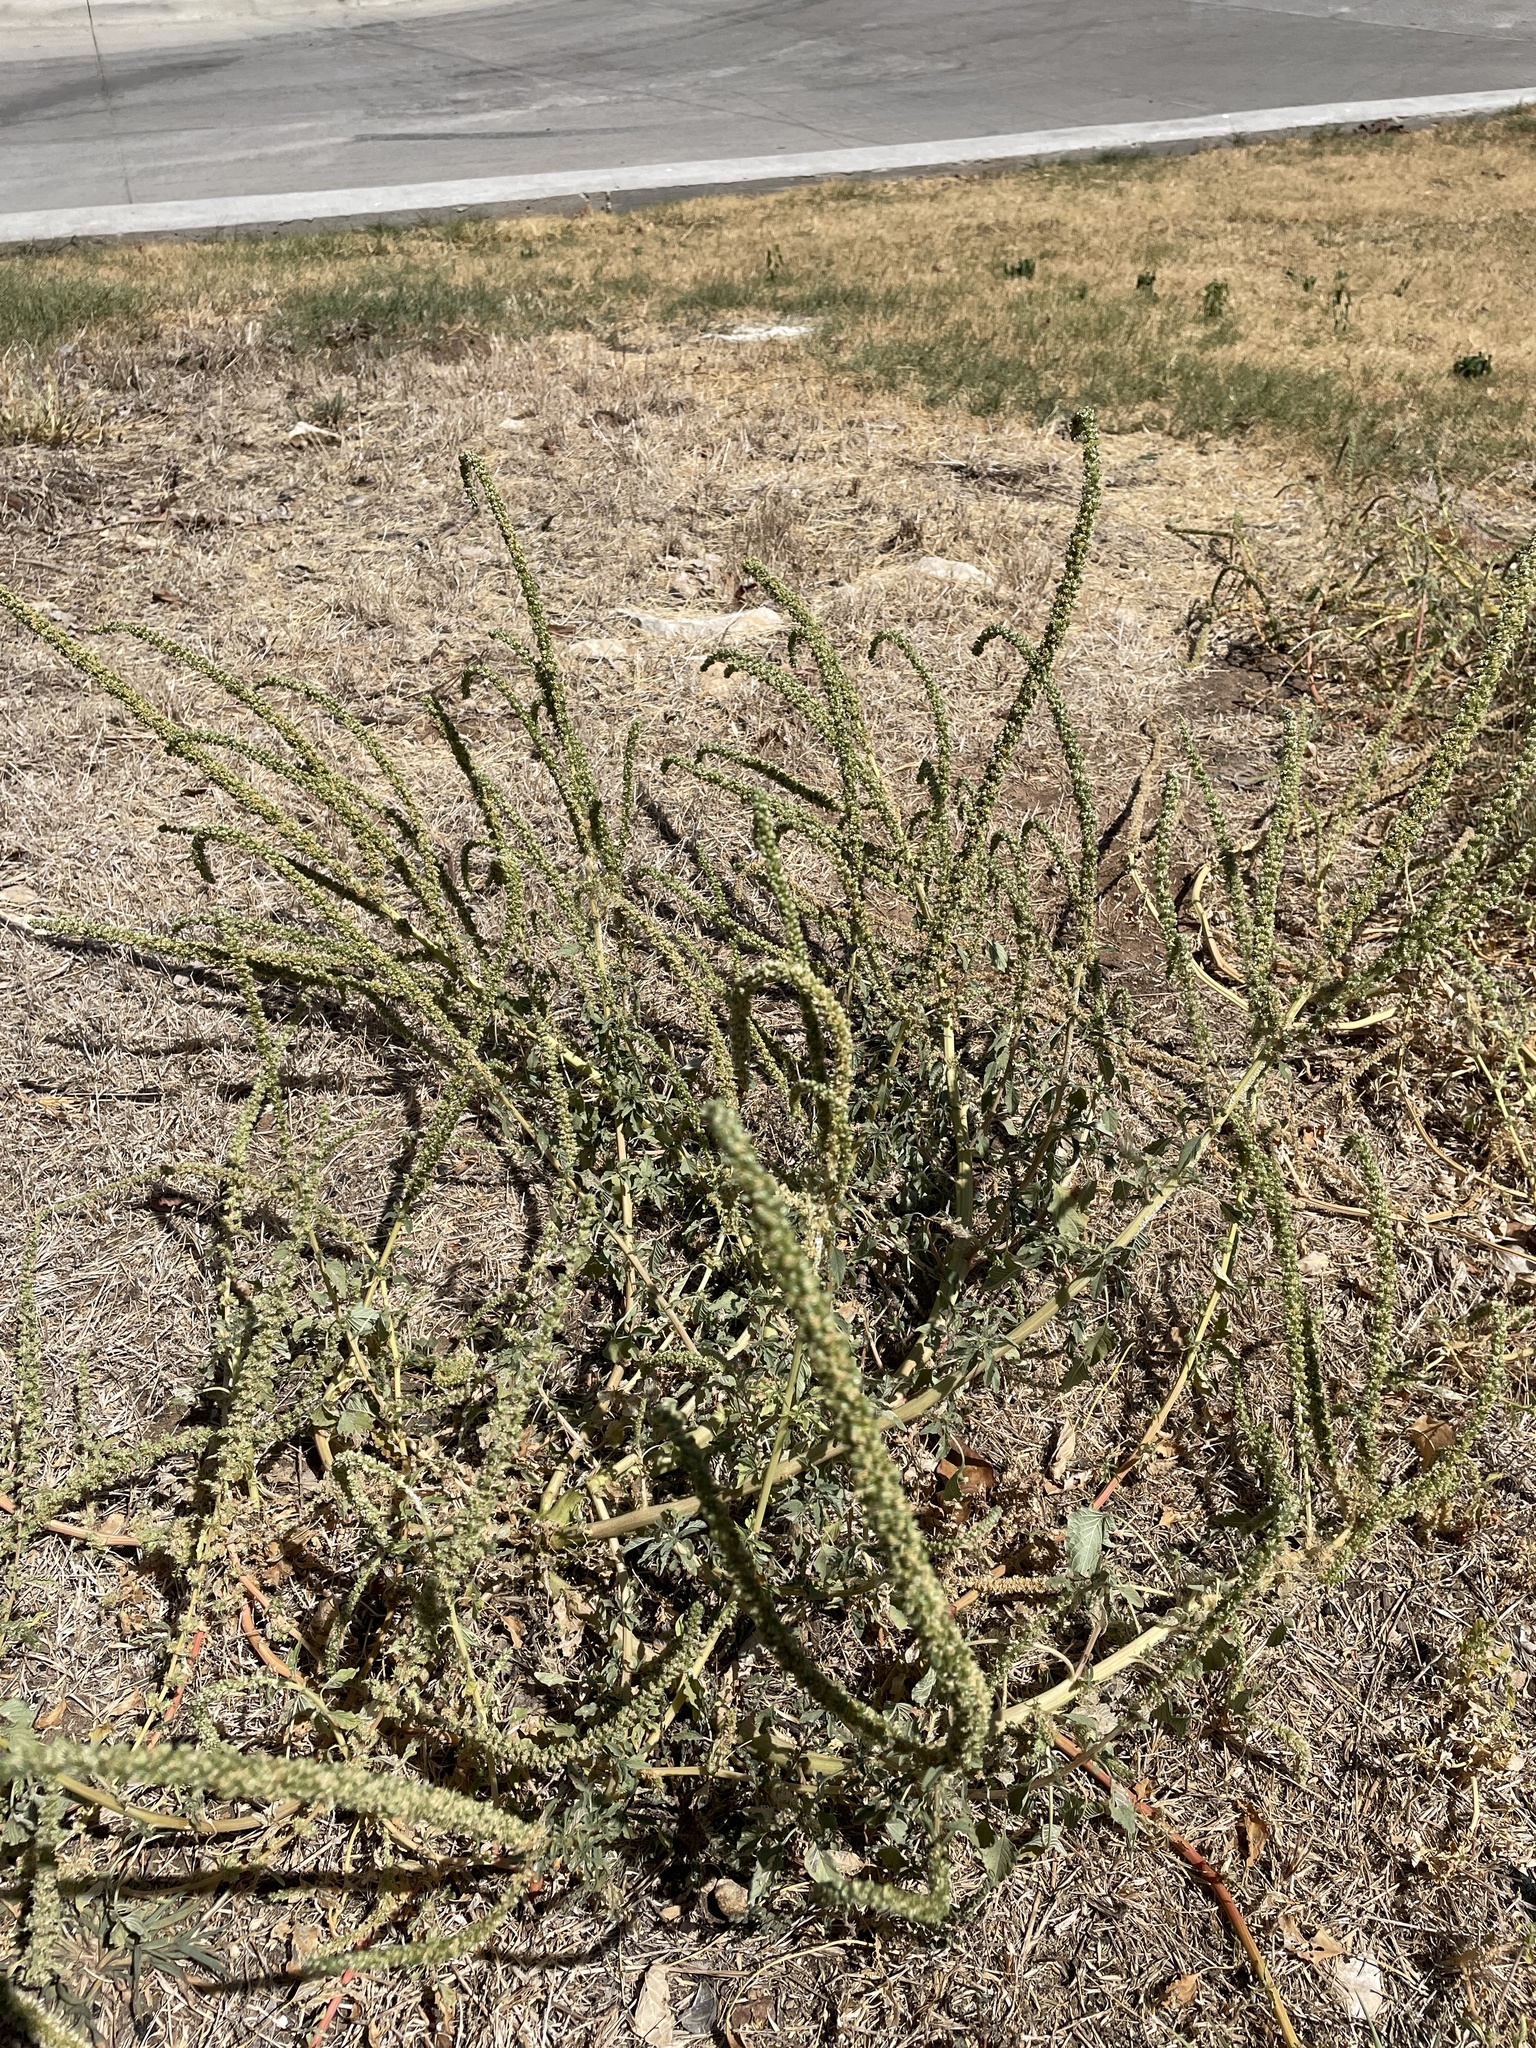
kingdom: Plantae
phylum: Tracheophyta
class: Magnoliopsida
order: Caryophyllales
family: Amaranthaceae
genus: Amaranthus
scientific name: Amaranthus palmeri
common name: Dioecious amaranth
